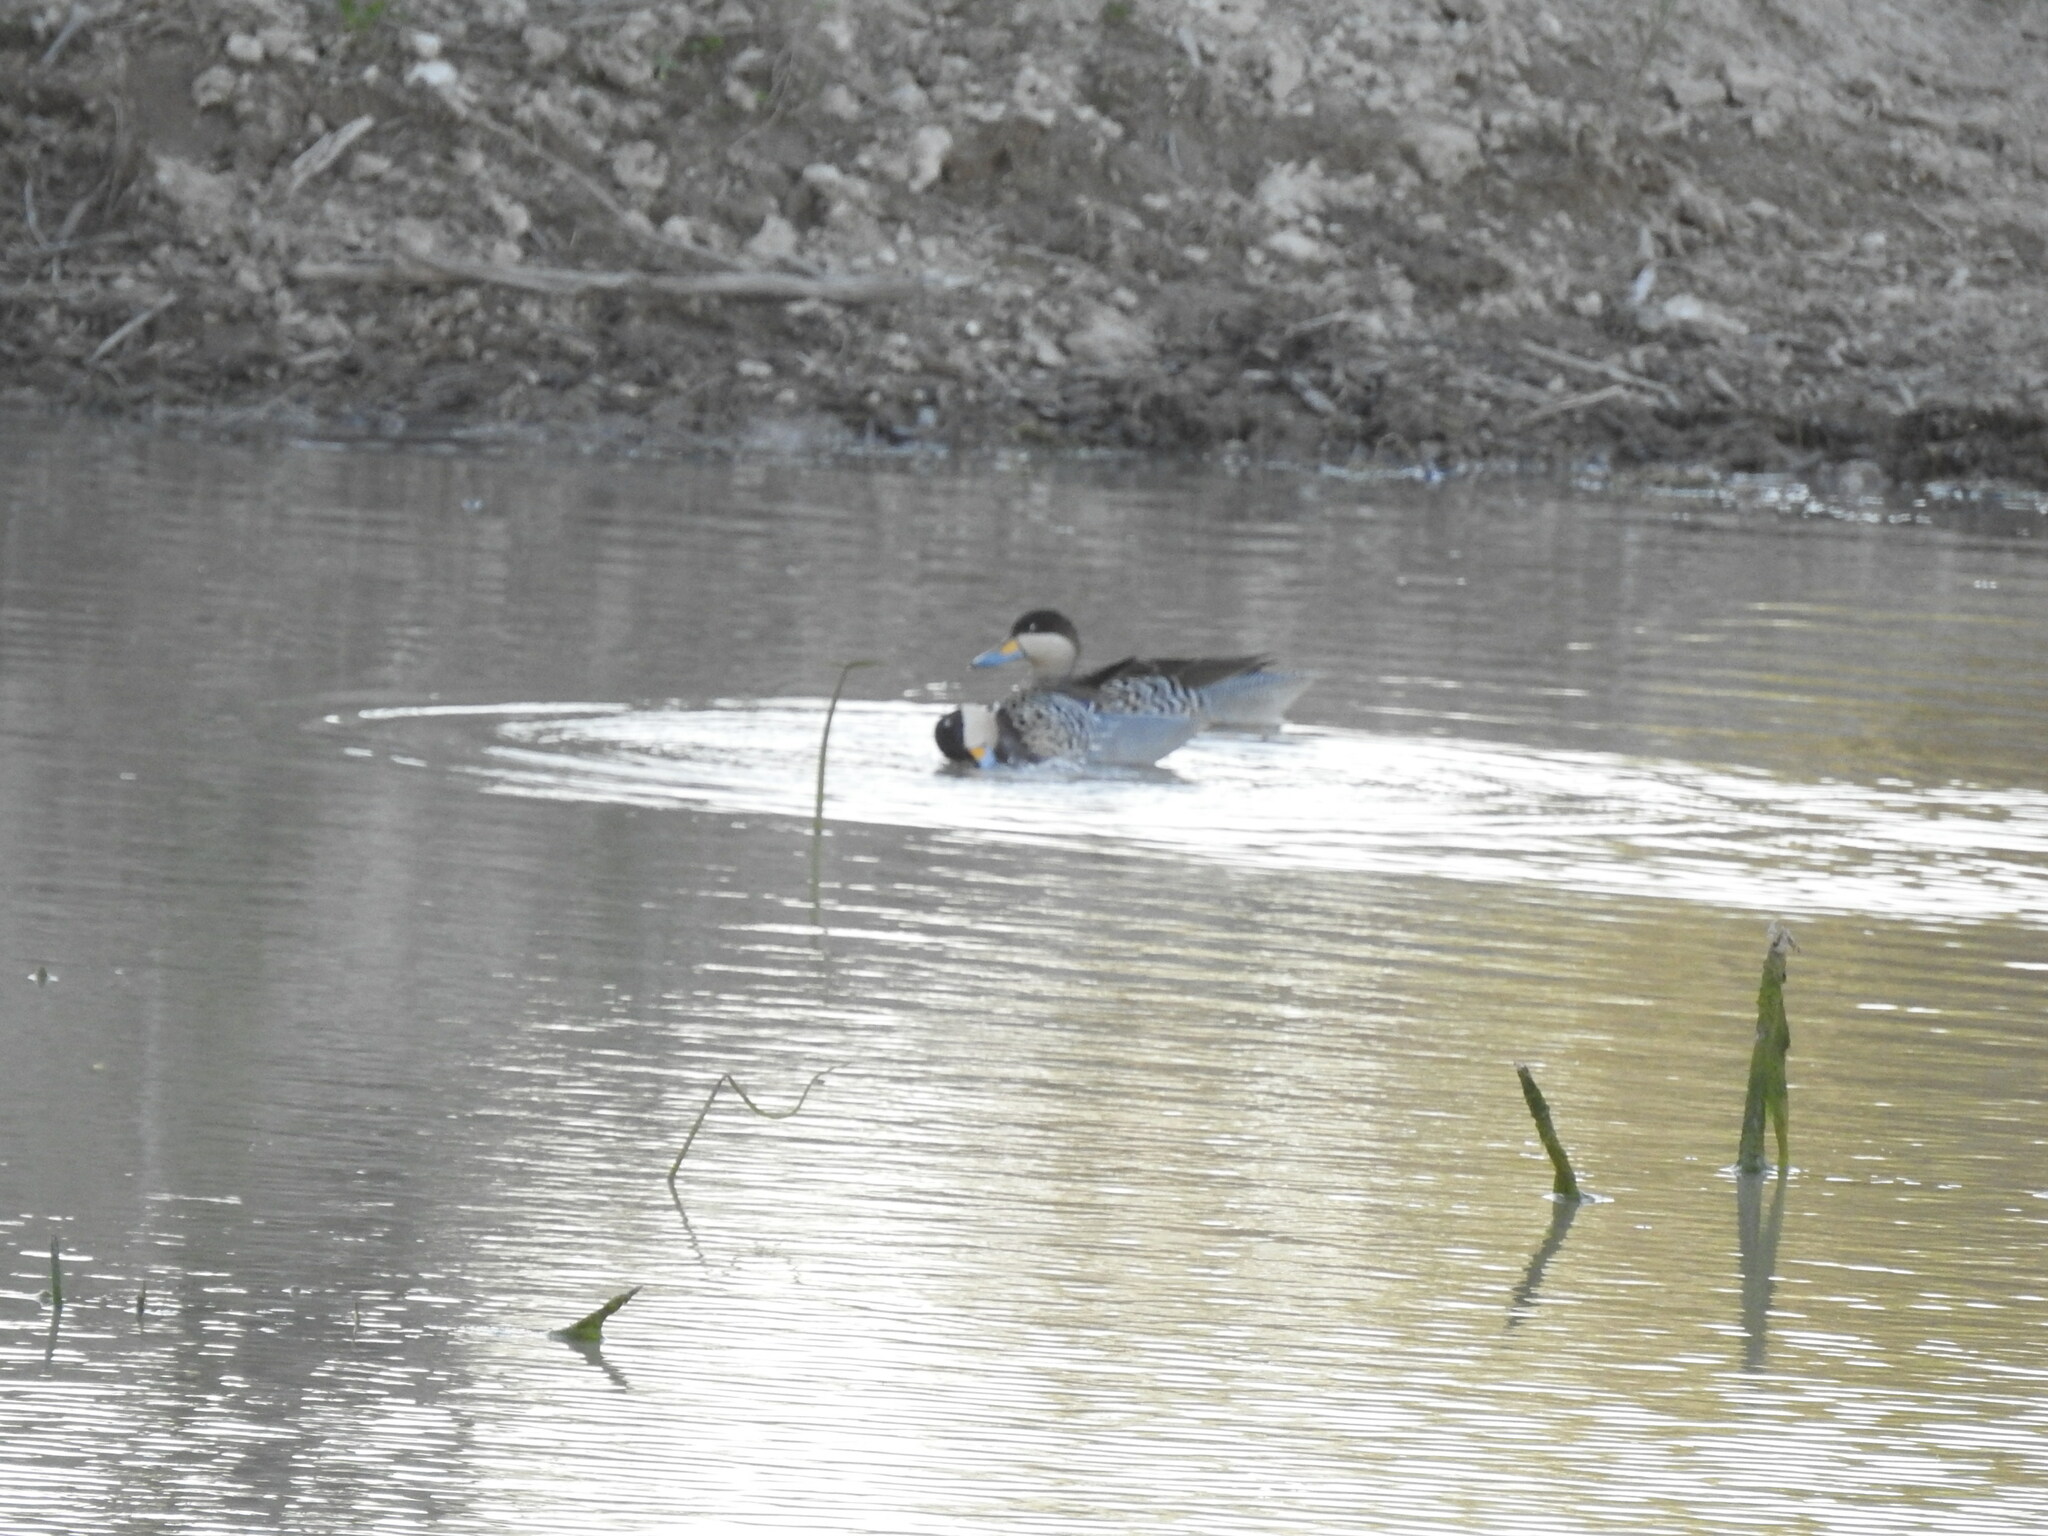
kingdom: Animalia
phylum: Chordata
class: Aves
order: Anseriformes
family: Anatidae
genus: Spatula
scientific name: Spatula versicolor
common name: Silver teal
